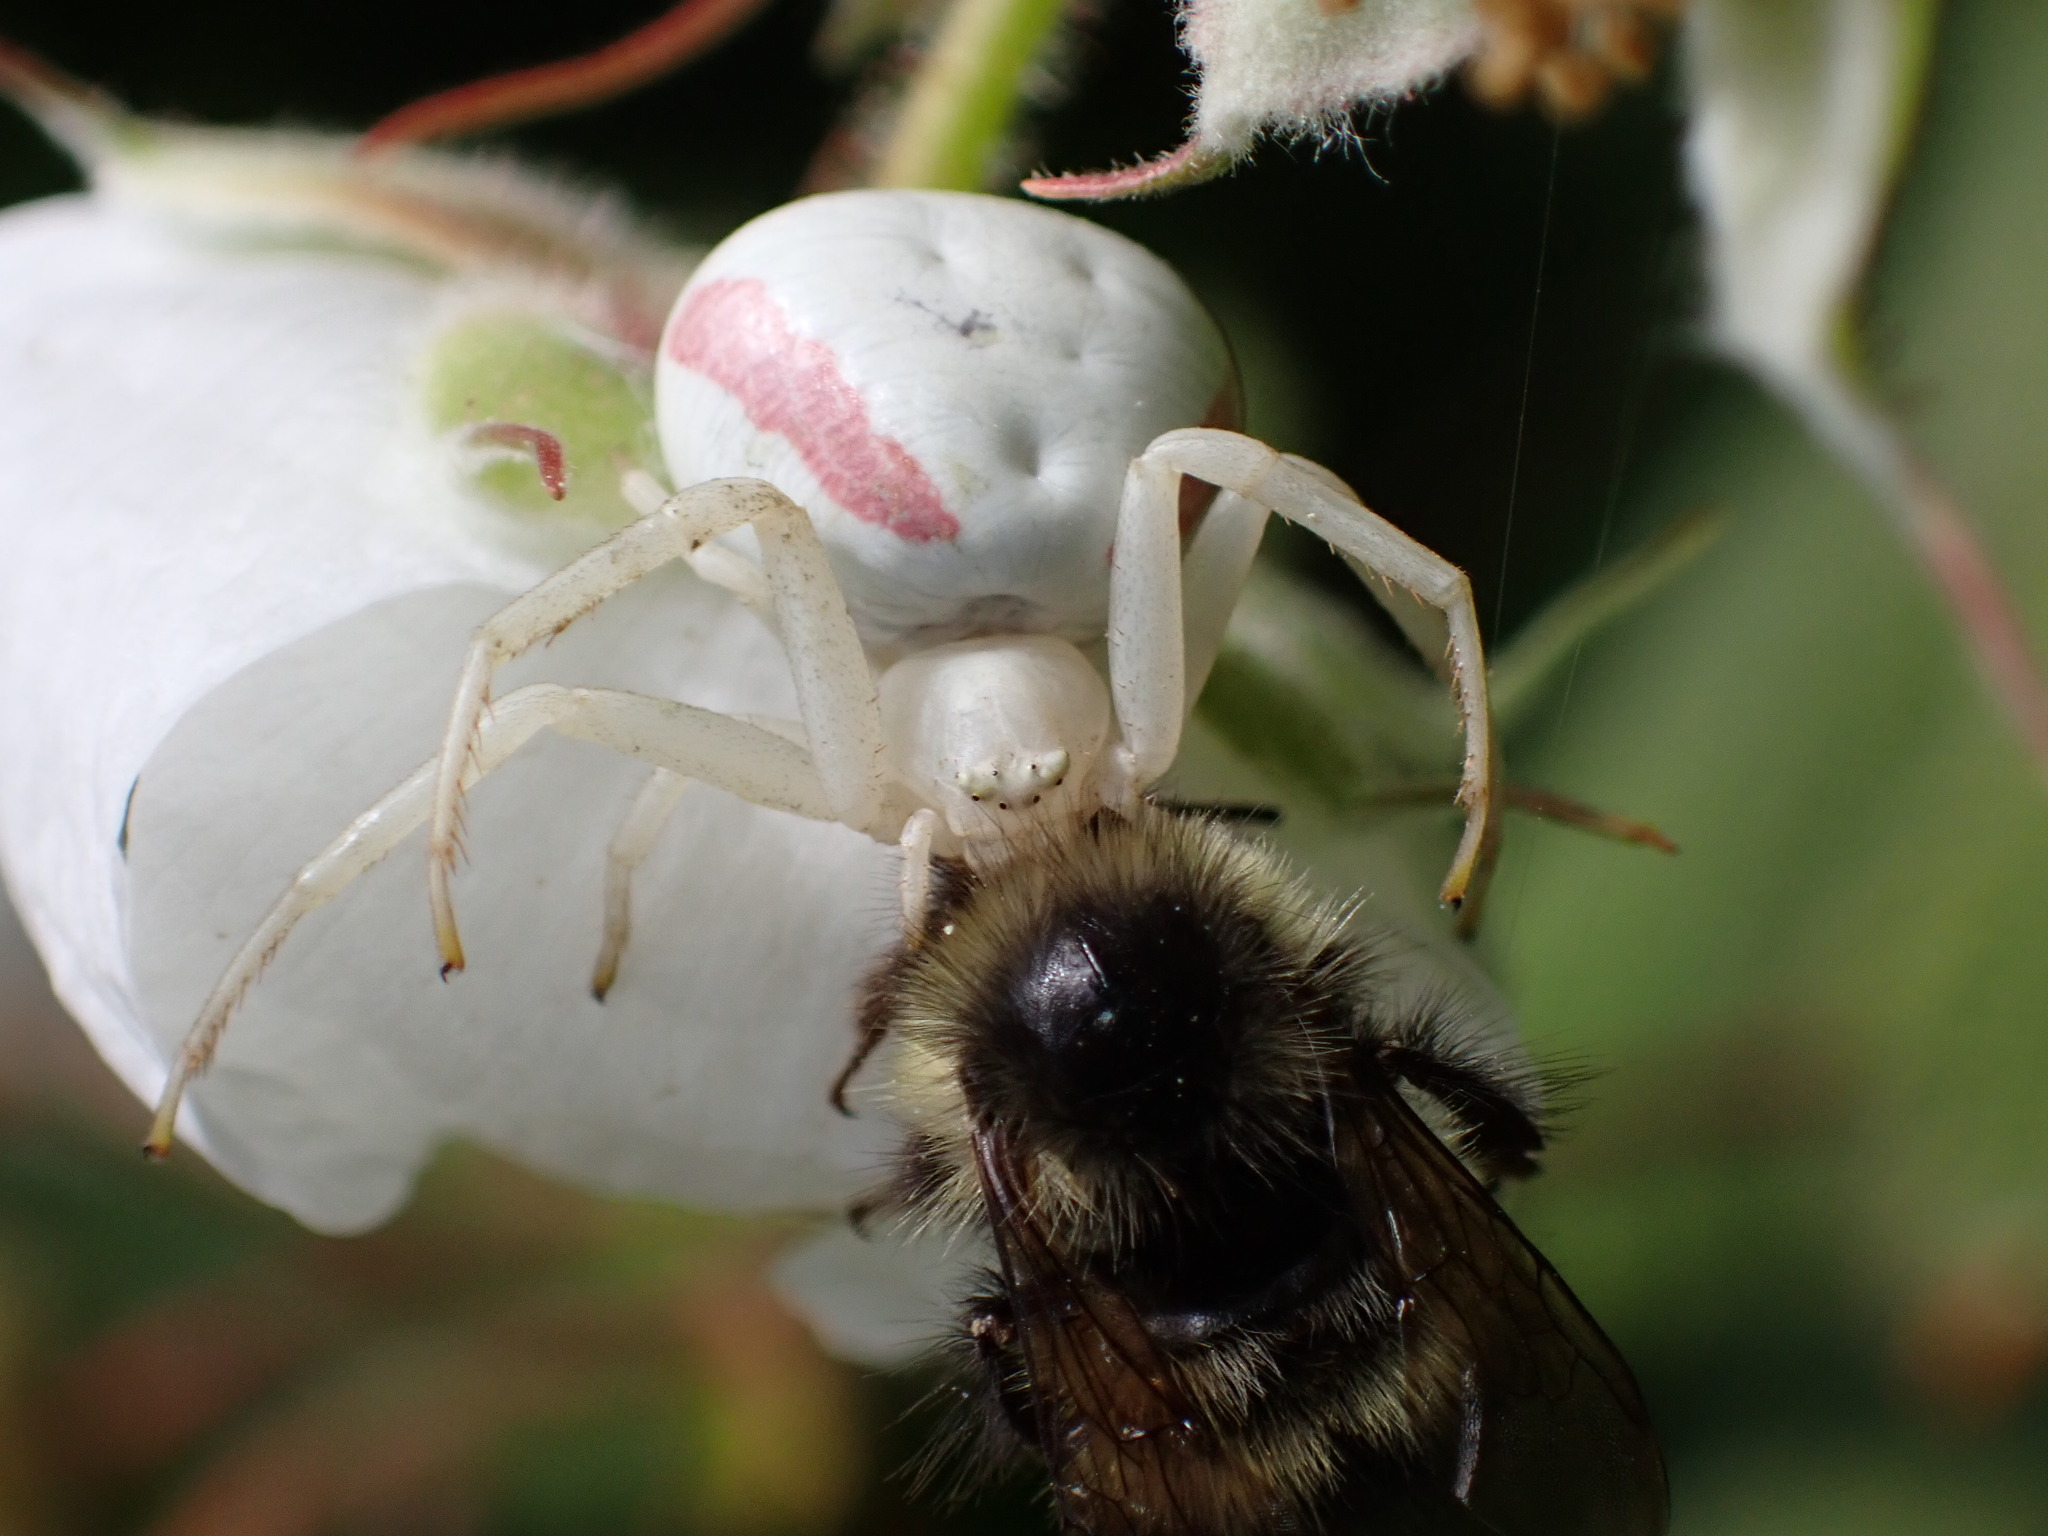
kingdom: Animalia
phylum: Arthropoda
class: Arachnida
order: Araneae
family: Thomisidae
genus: Misumena
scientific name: Misumena vatia
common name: Goldenrod crab spider
